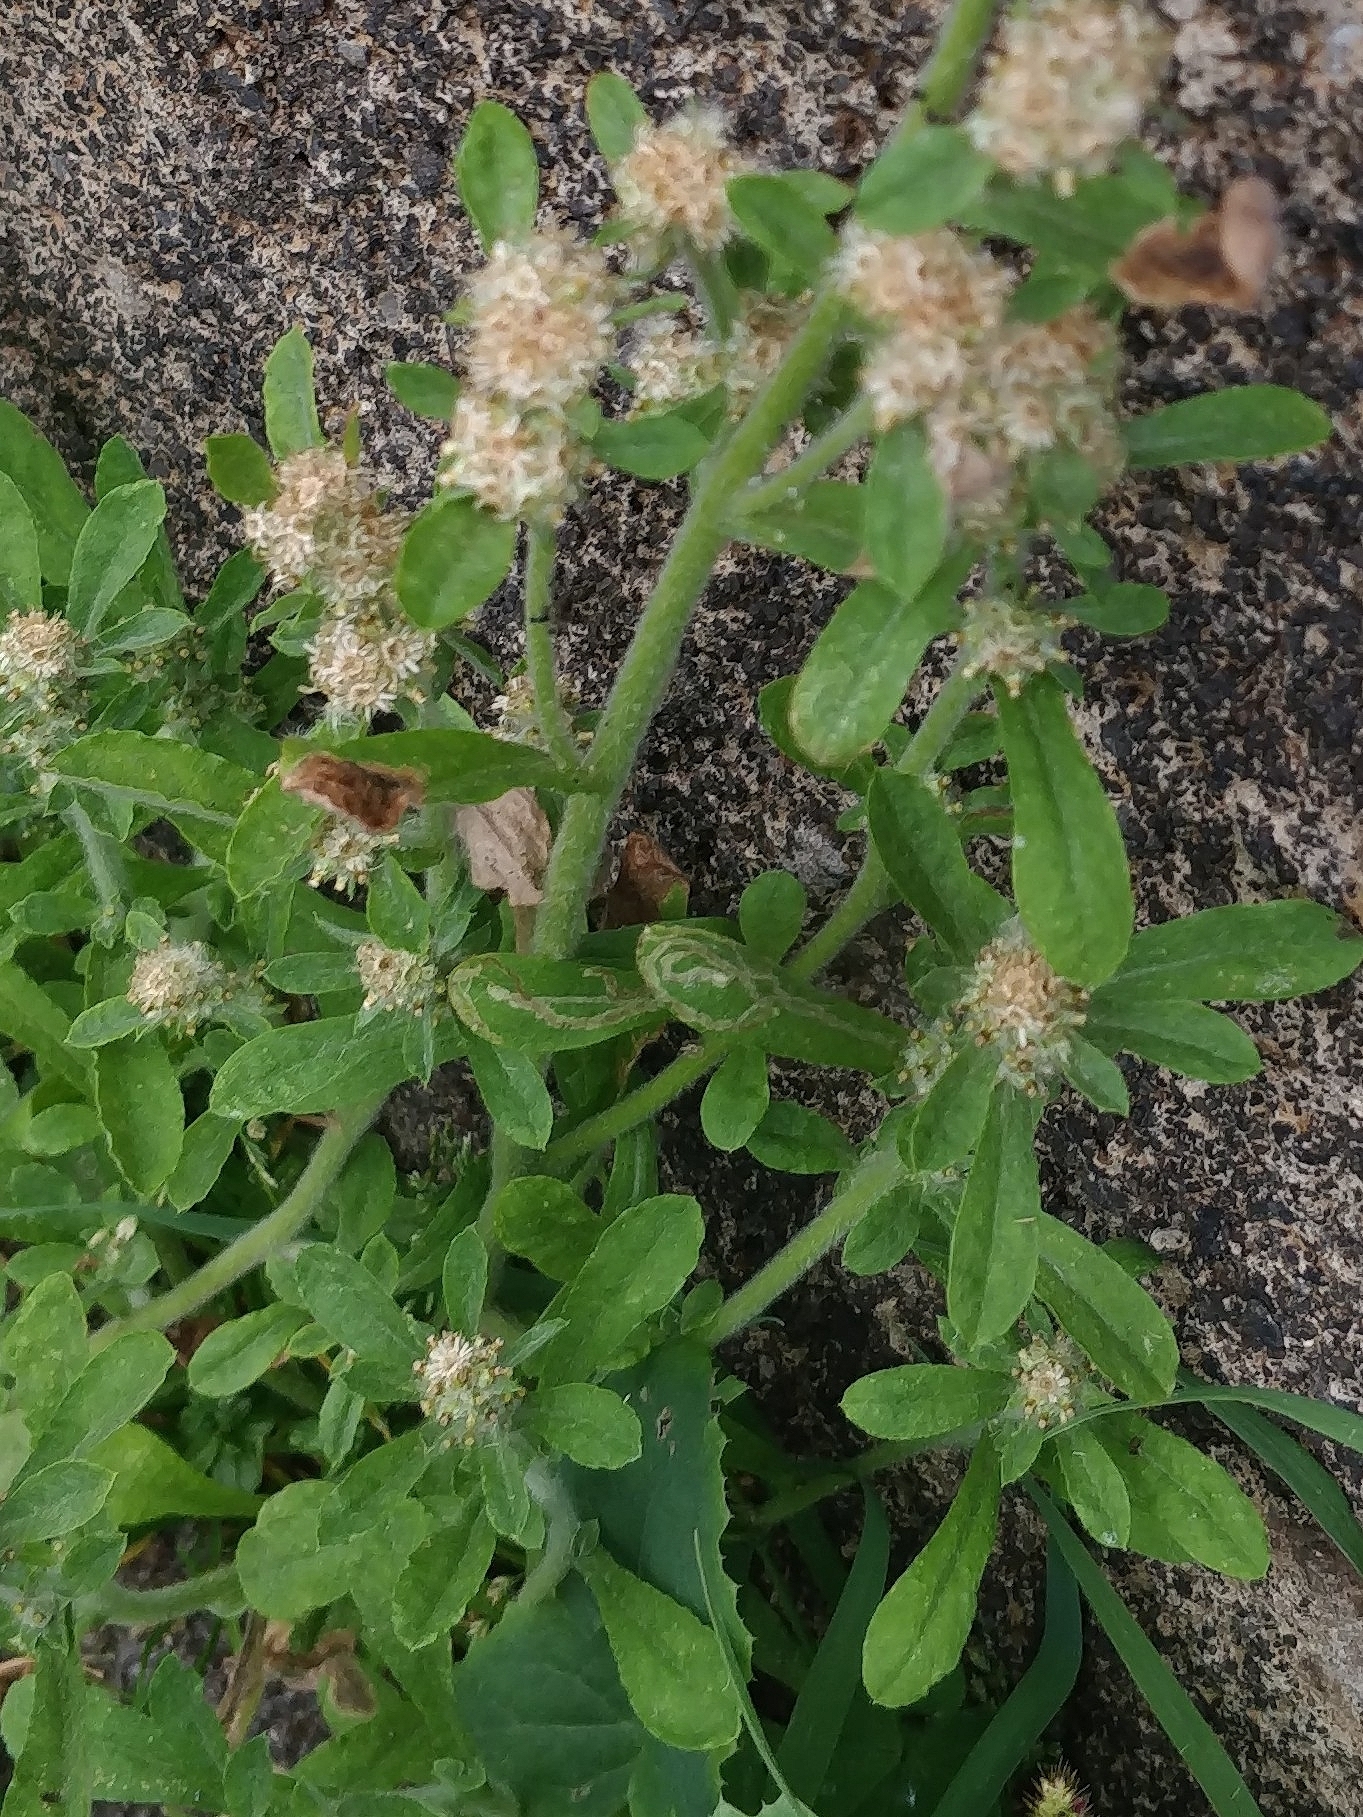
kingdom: Plantae
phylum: Tracheophyta
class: Magnoliopsida
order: Asterales
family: Asteraceae
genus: Gamochaeta
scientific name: Gamochaeta pensylvanica
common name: Pennsylvania everlasting
